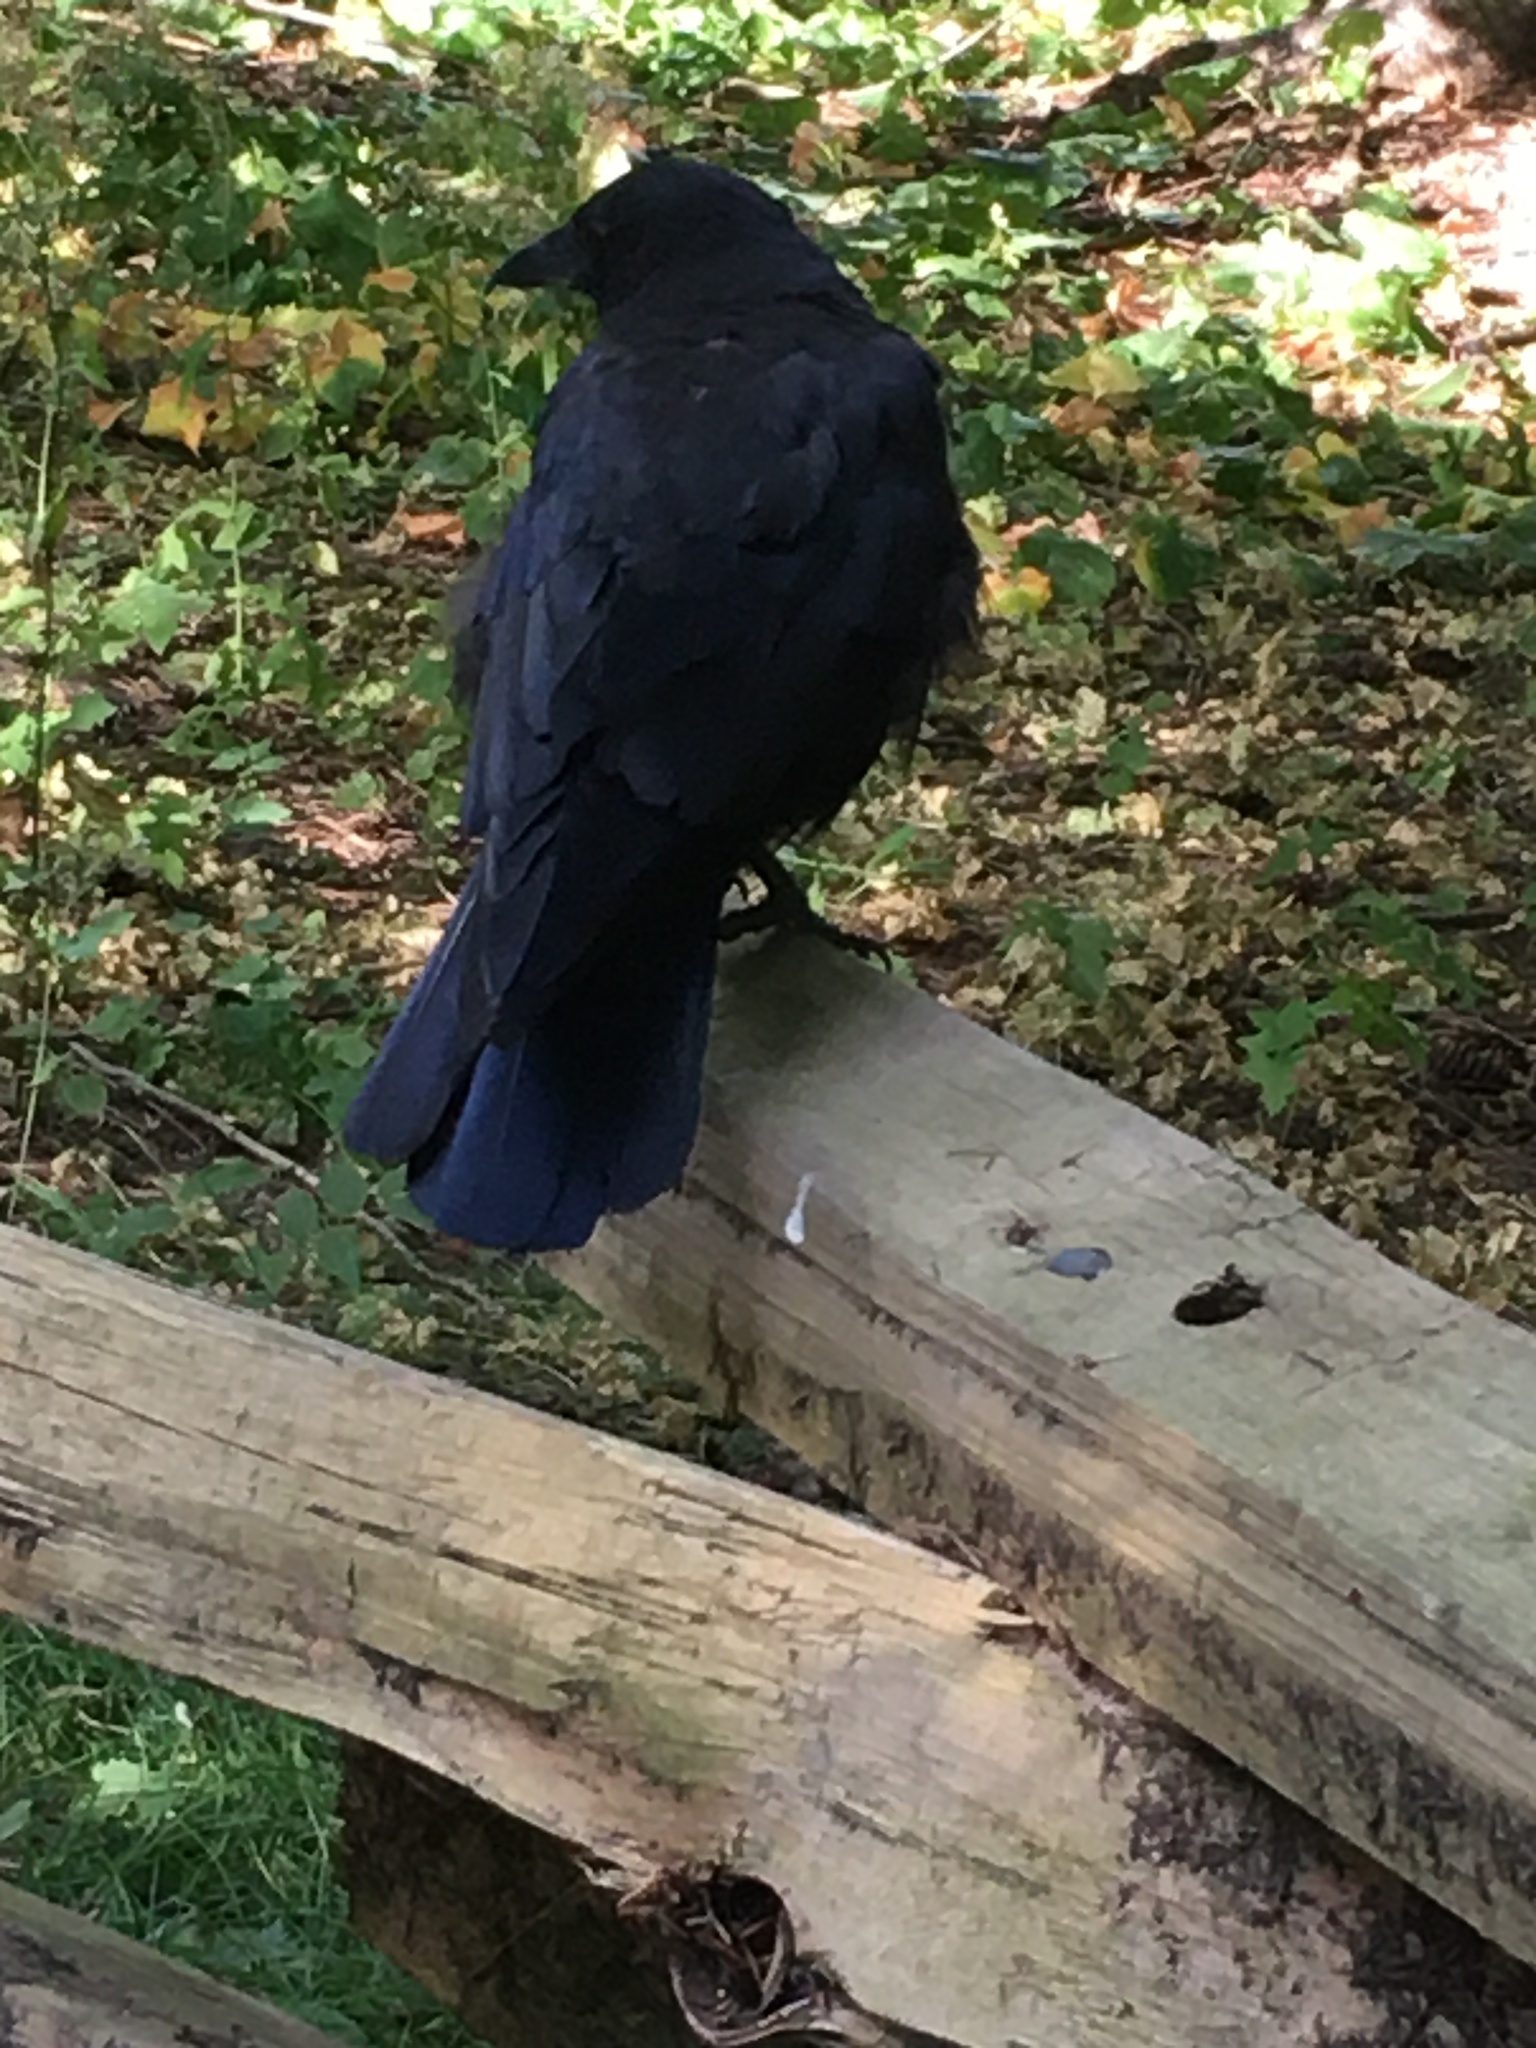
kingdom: Animalia
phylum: Chordata
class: Aves
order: Passeriformes
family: Corvidae
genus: Corvus
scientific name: Corvus brachyrhynchos
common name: American crow
